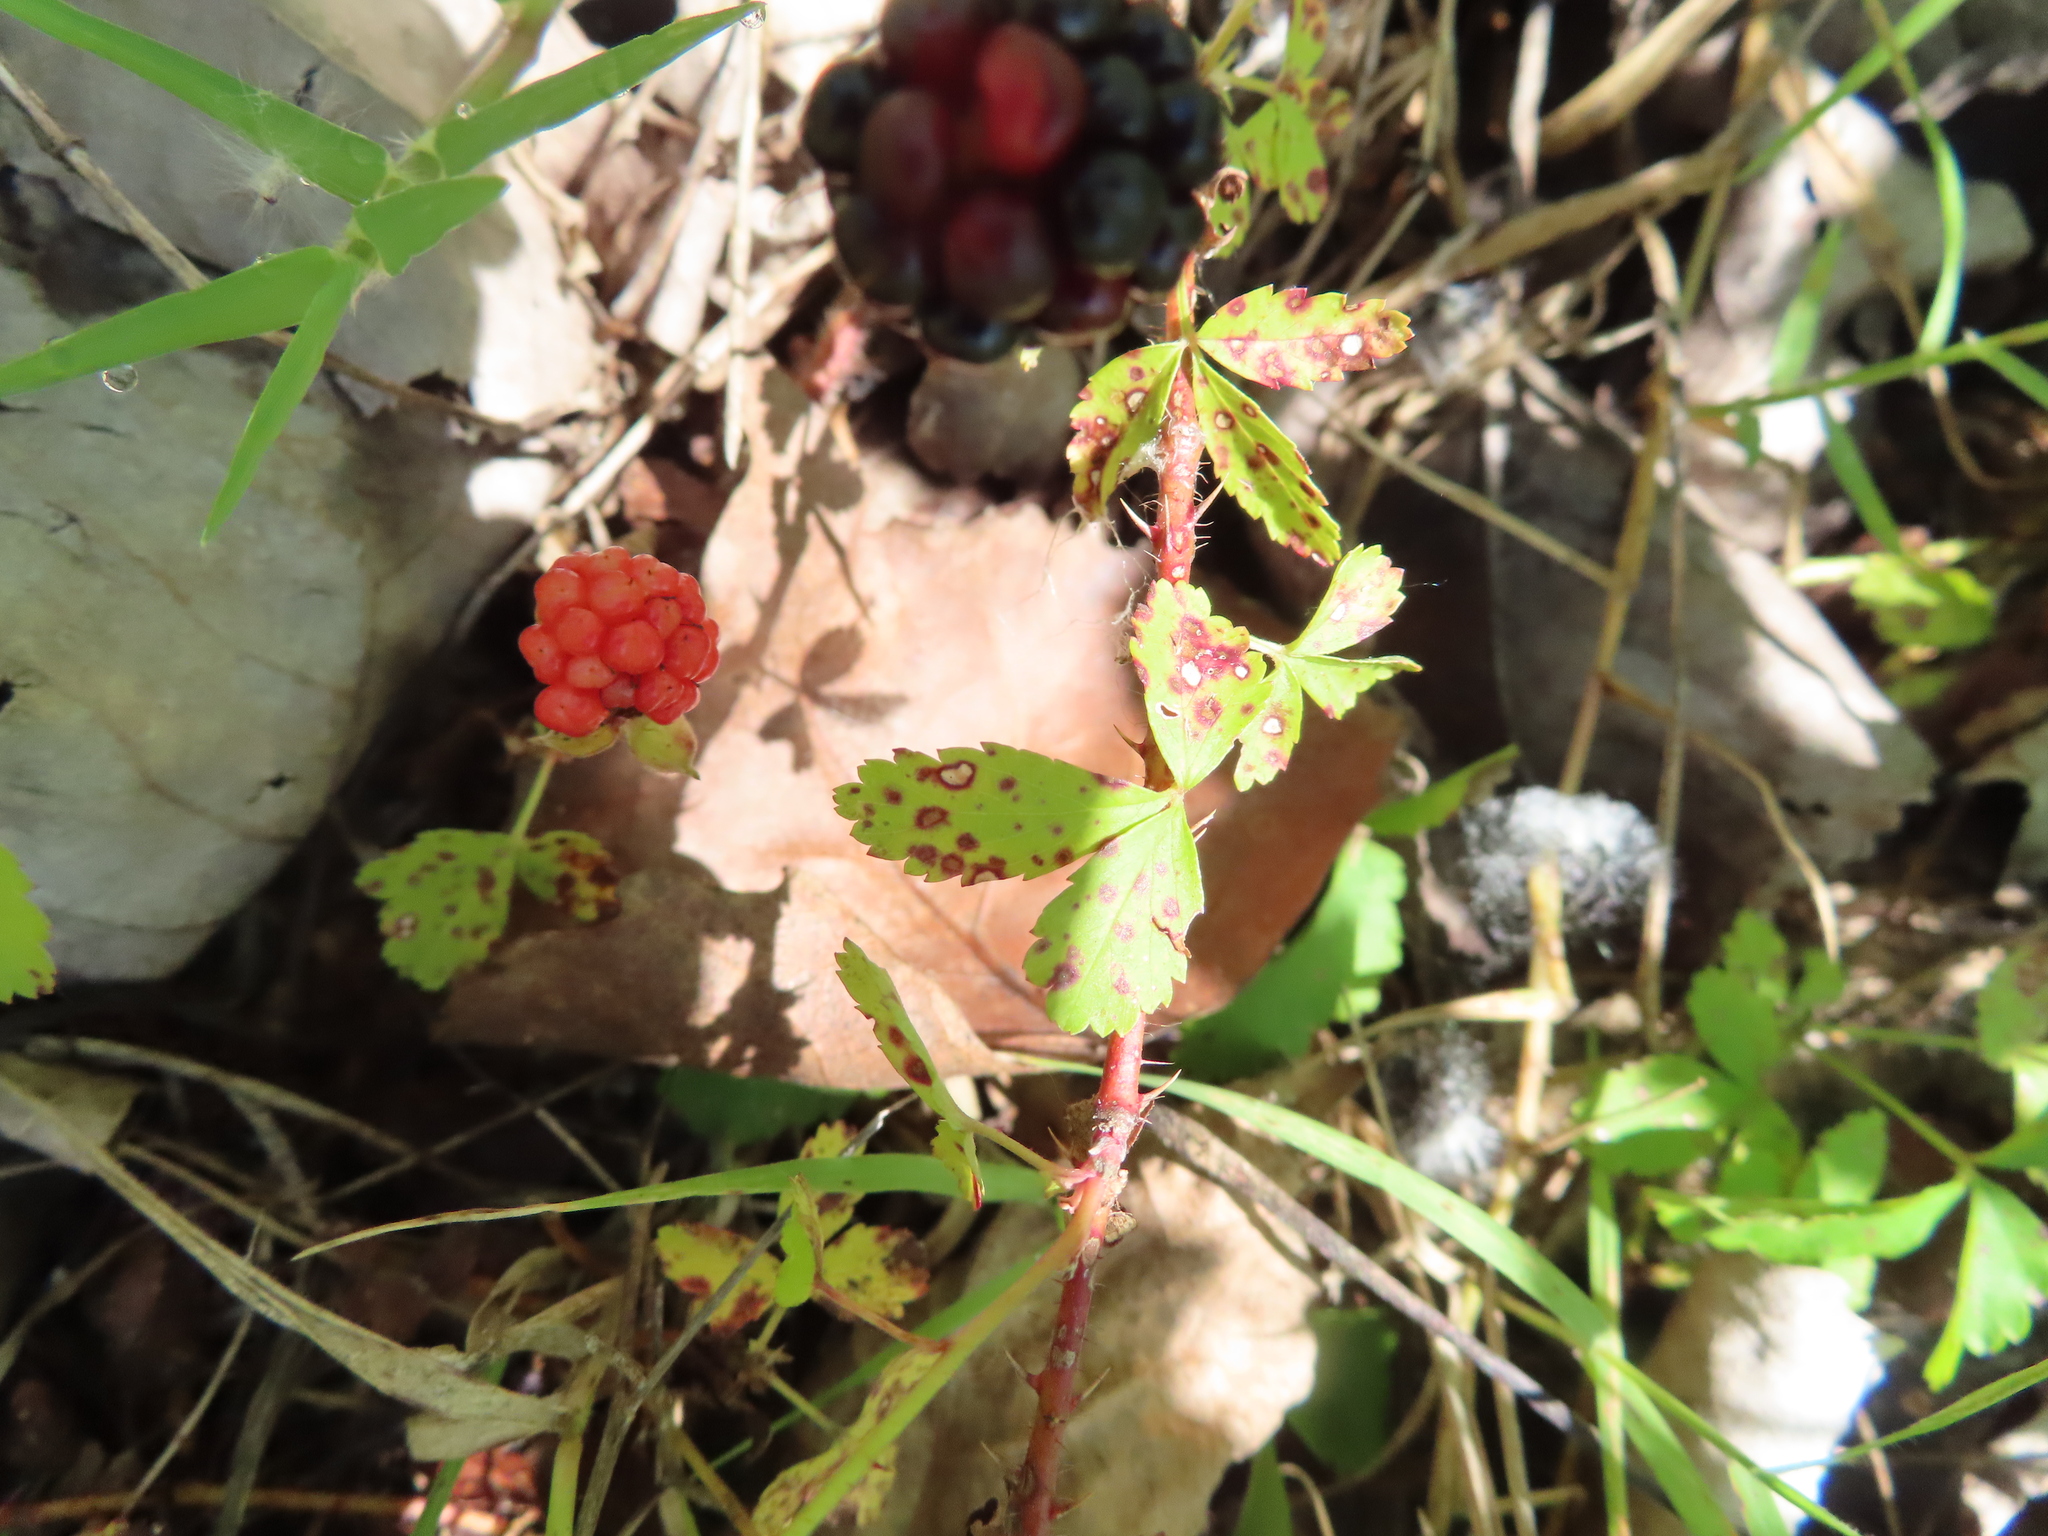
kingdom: Plantae
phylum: Tracheophyta
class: Magnoliopsida
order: Rosales
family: Rosaceae
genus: Rubus
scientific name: Rubus trivialis
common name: Southern dewberry
